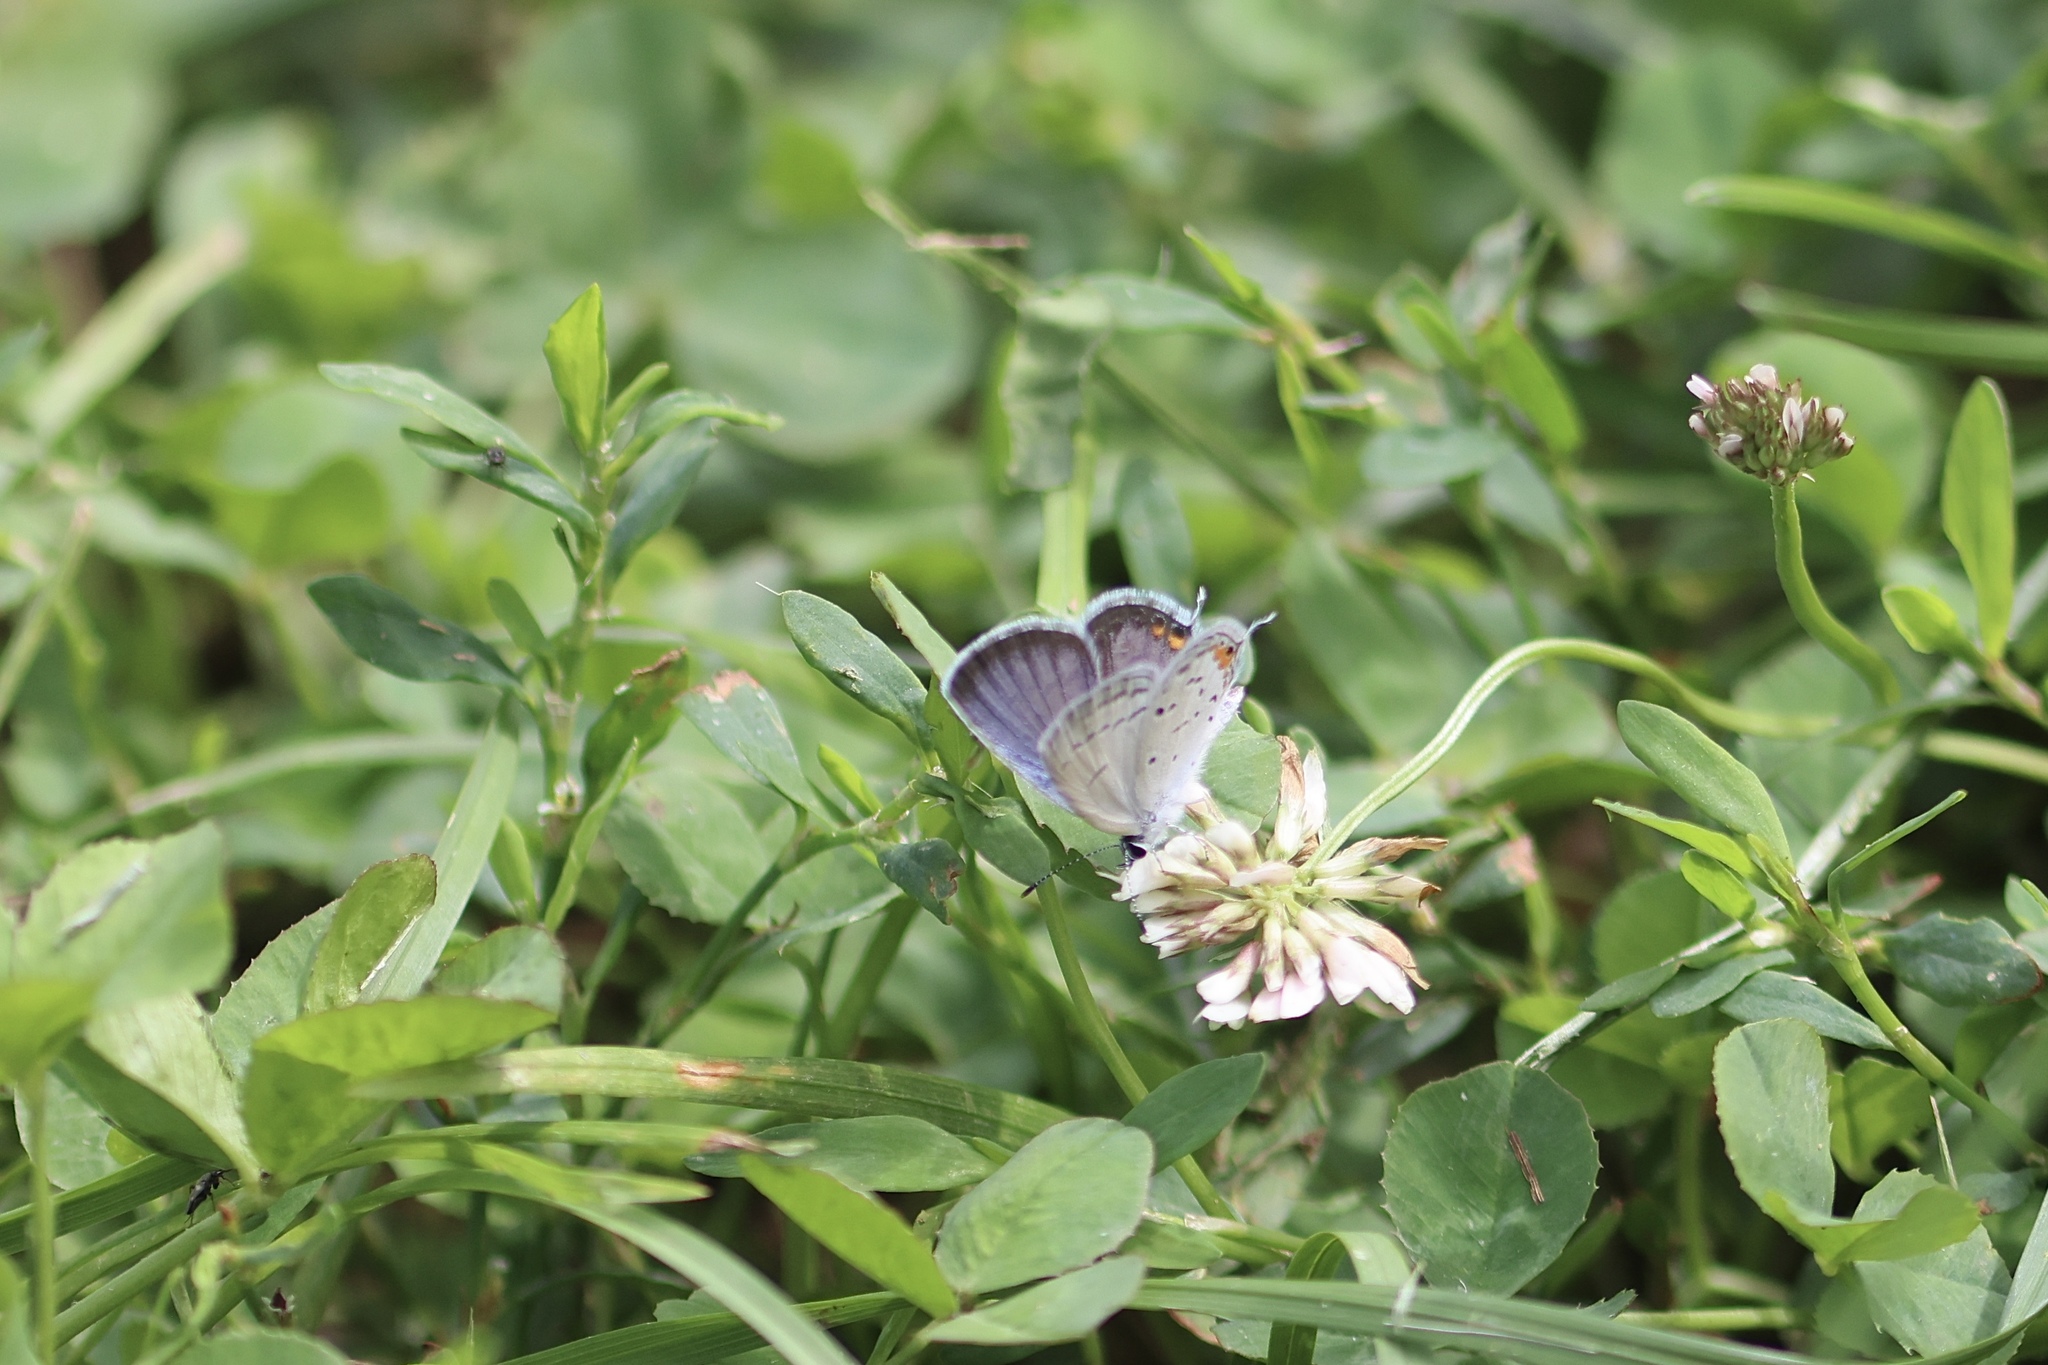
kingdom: Animalia
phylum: Arthropoda
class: Insecta
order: Lepidoptera
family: Lycaenidae
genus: Elkalyce
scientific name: Elkalyce comyntas
